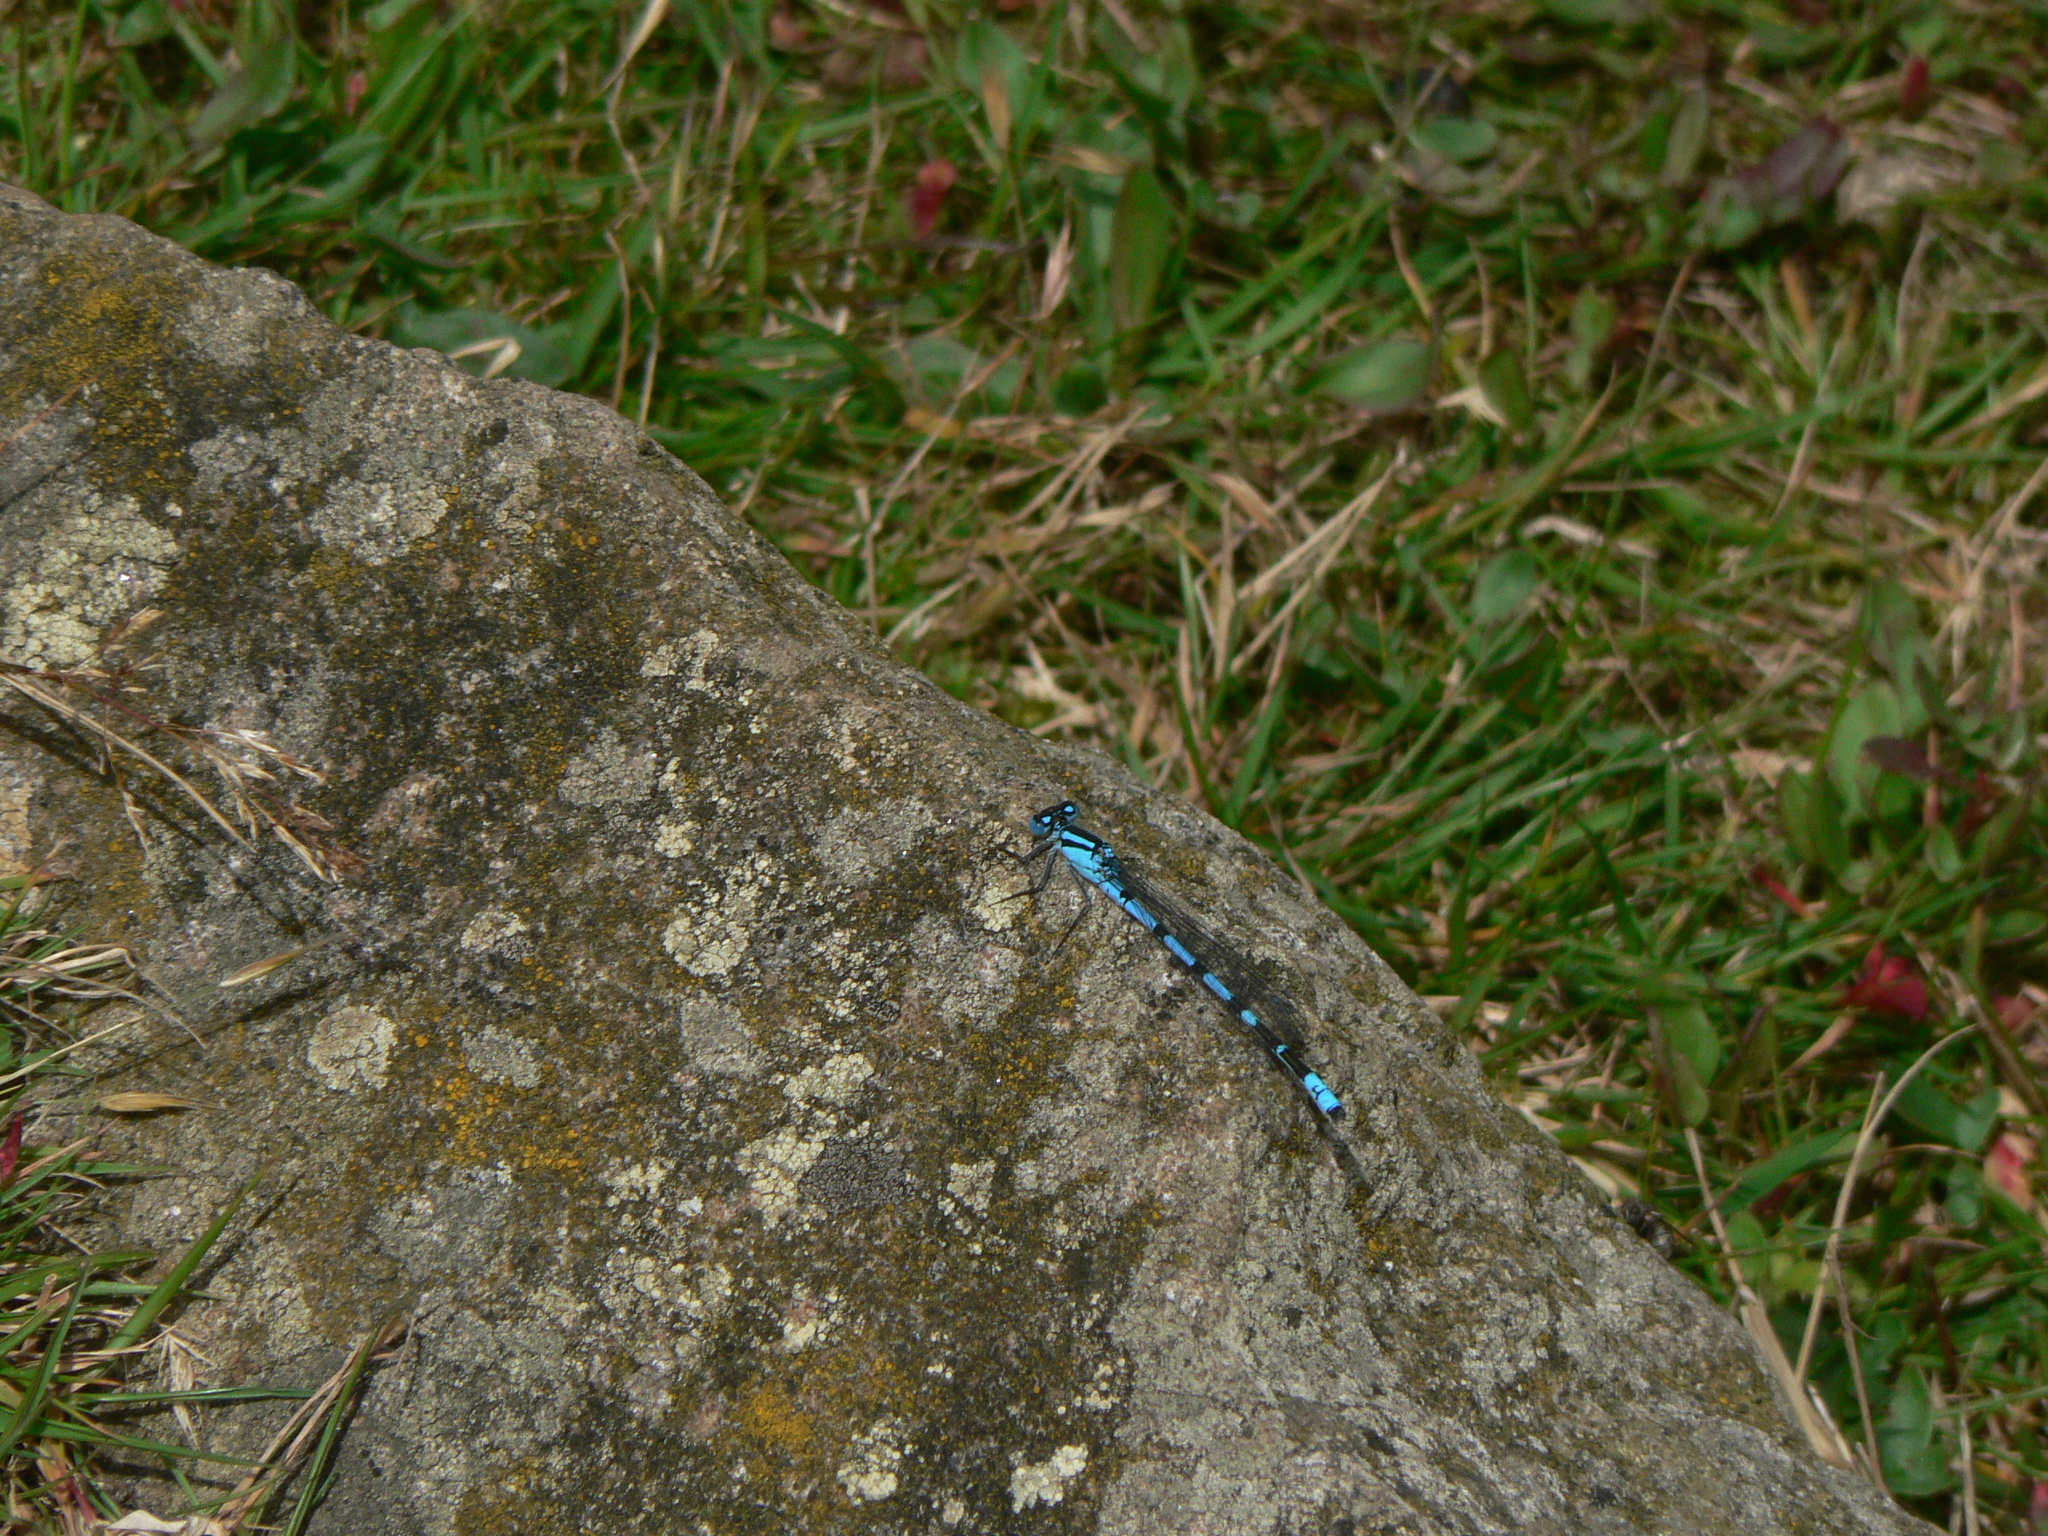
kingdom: Animalia
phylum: Arthropoda
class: Insecta
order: Odonata
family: Coenagrionidae
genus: Enallagma
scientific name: Enallagma cyathigerum
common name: Common blue damselfly
